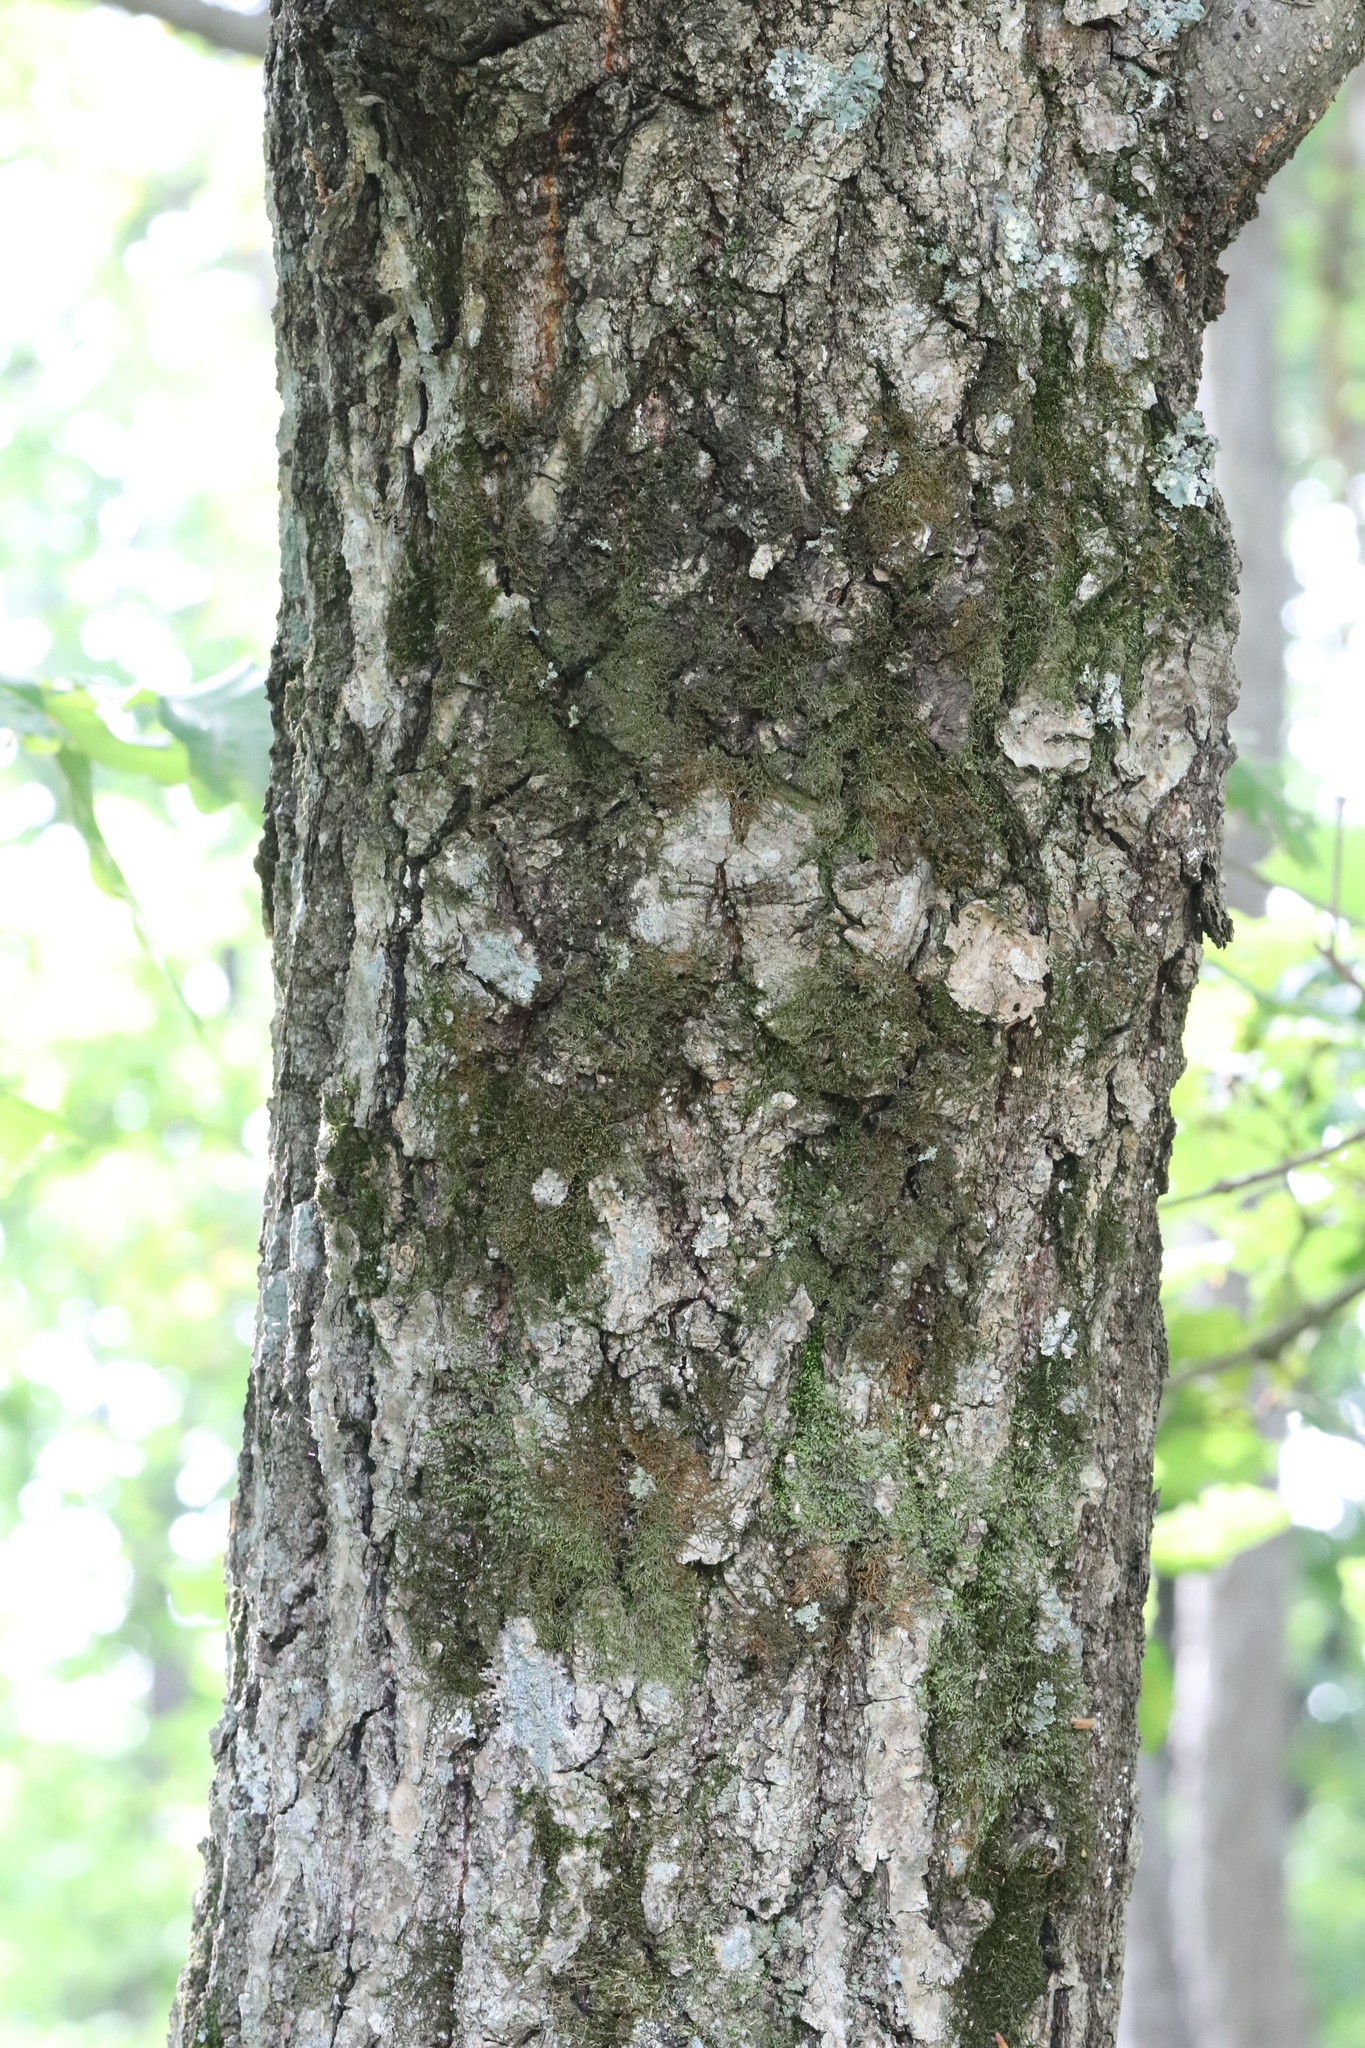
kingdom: Plantae
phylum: Tracheophyta
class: Magnoliopsida
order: Fagales
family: Fagaceae
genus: Quercus
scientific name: Quercus mongolica
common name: Mongolian oak
